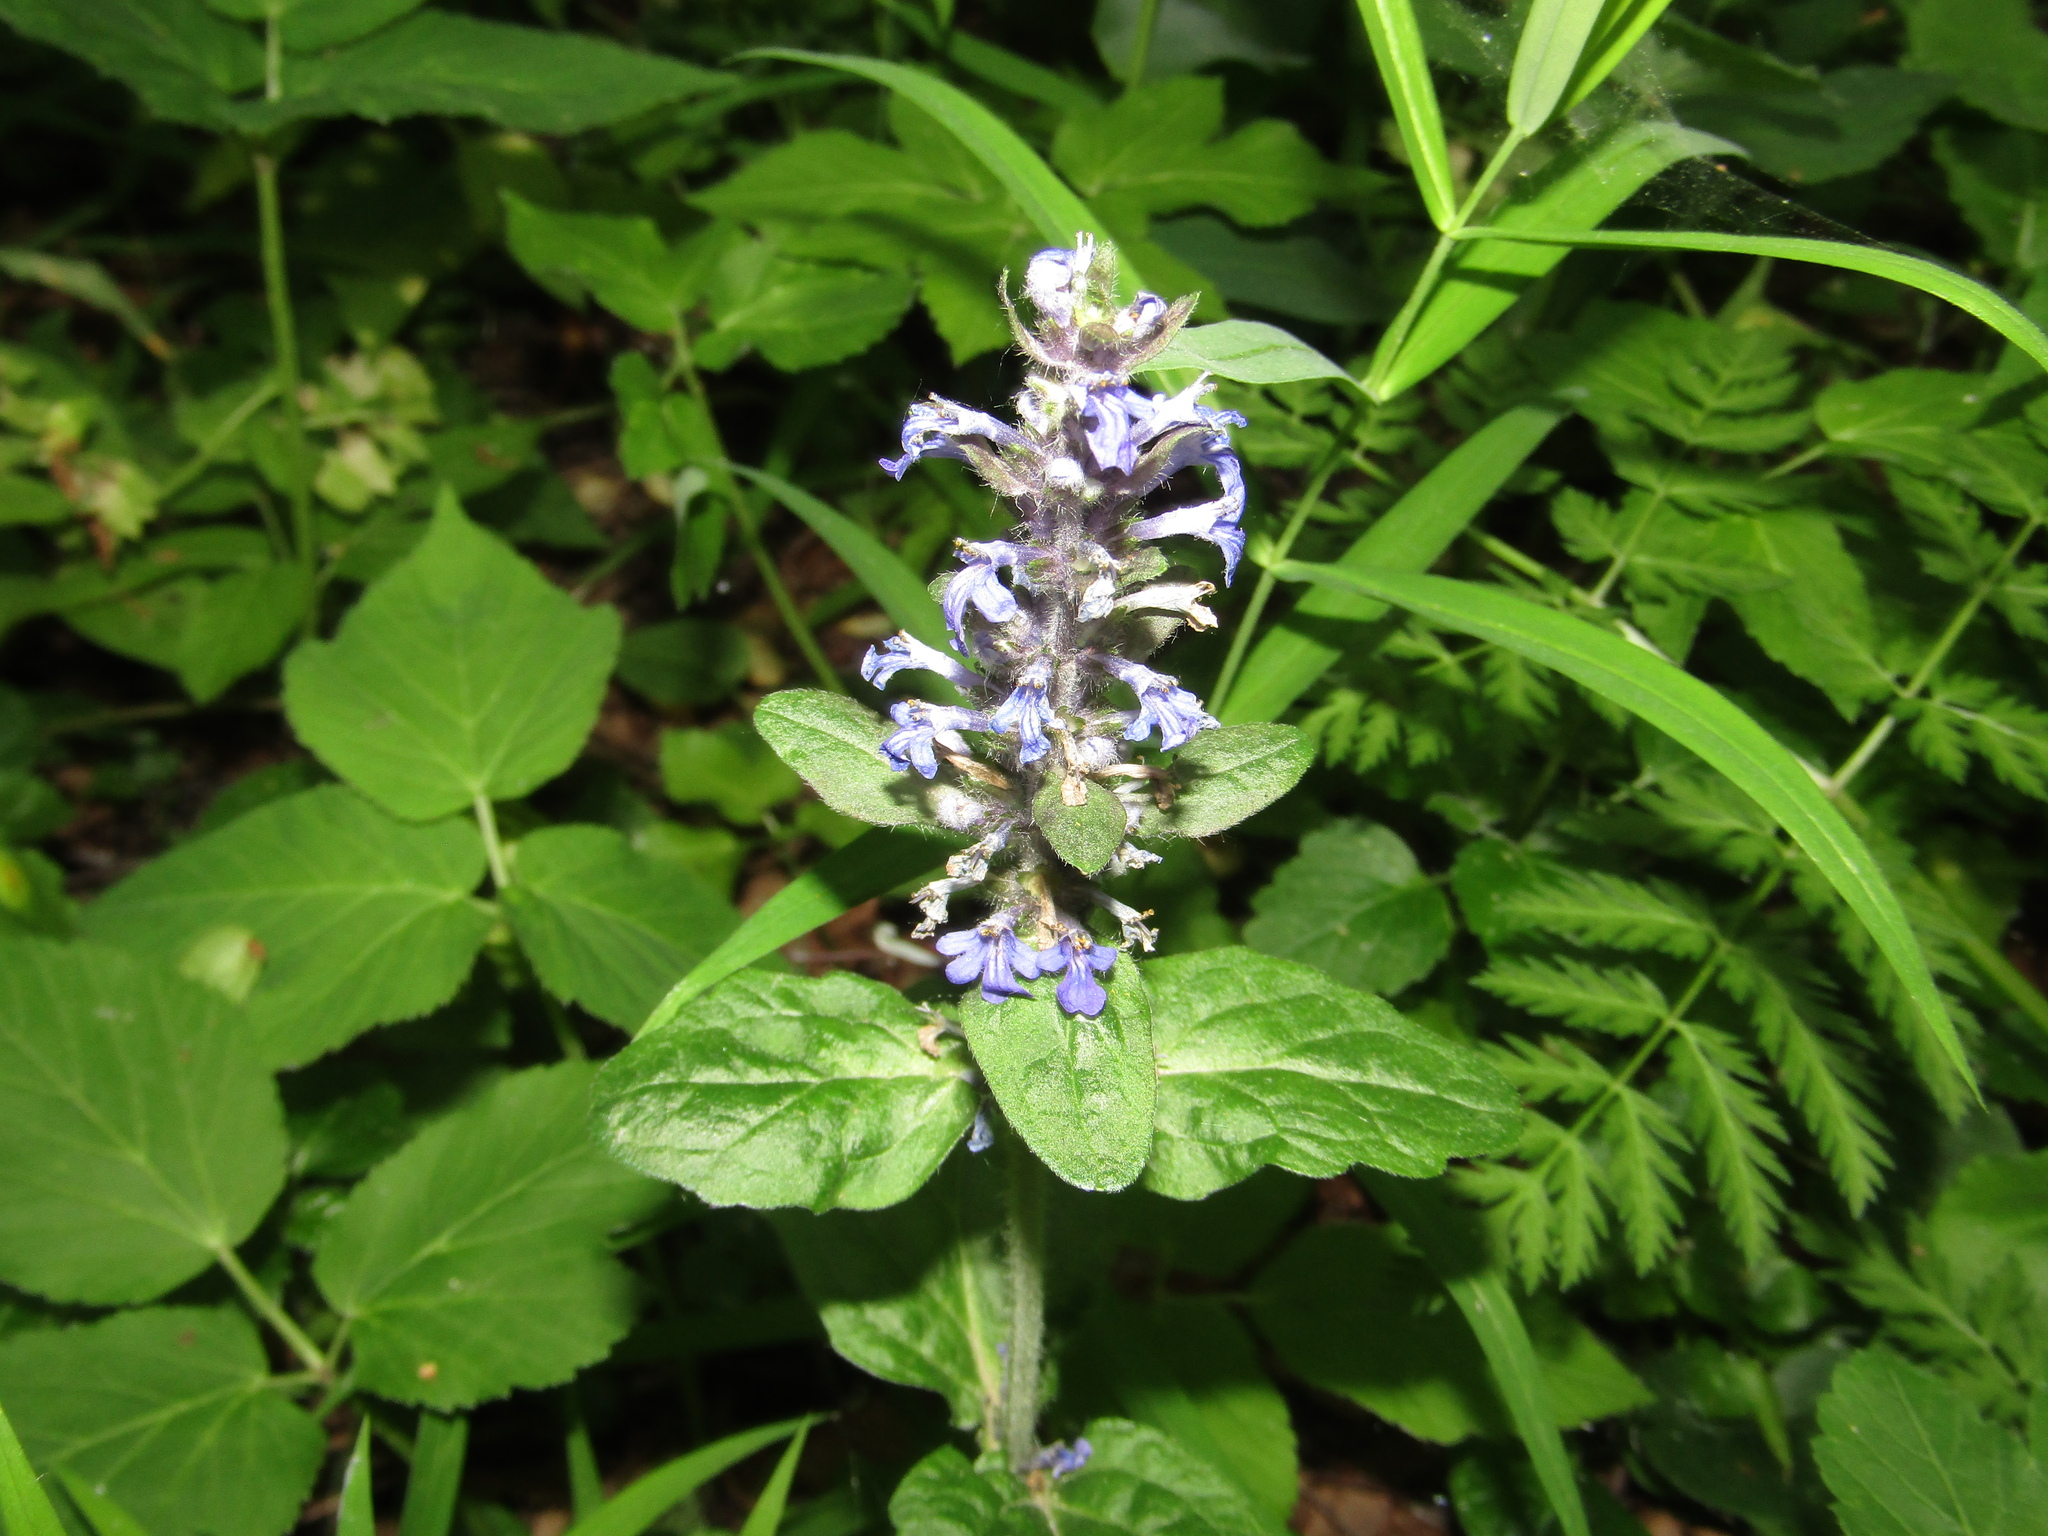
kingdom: Plantae
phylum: Tracheophyta
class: Magnoliopsida
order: Lamiales
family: Lamiaceae
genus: Ajuga
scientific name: Ajuga reptans
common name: Bugle
